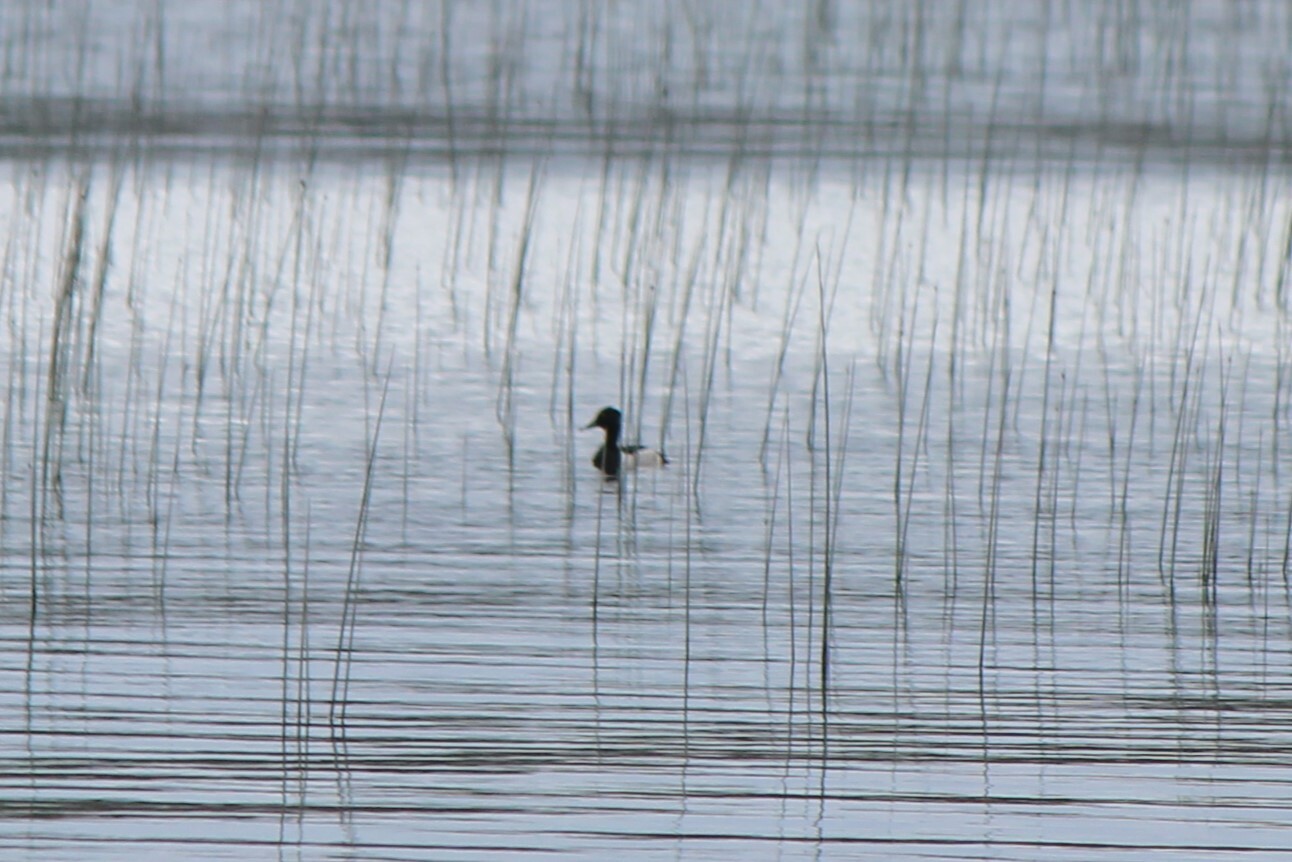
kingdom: Animalia
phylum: Chordata
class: Aves
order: Anseriformes
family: Anatidae
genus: Aythya
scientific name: Aythya collaris
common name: Ring-necked duck
